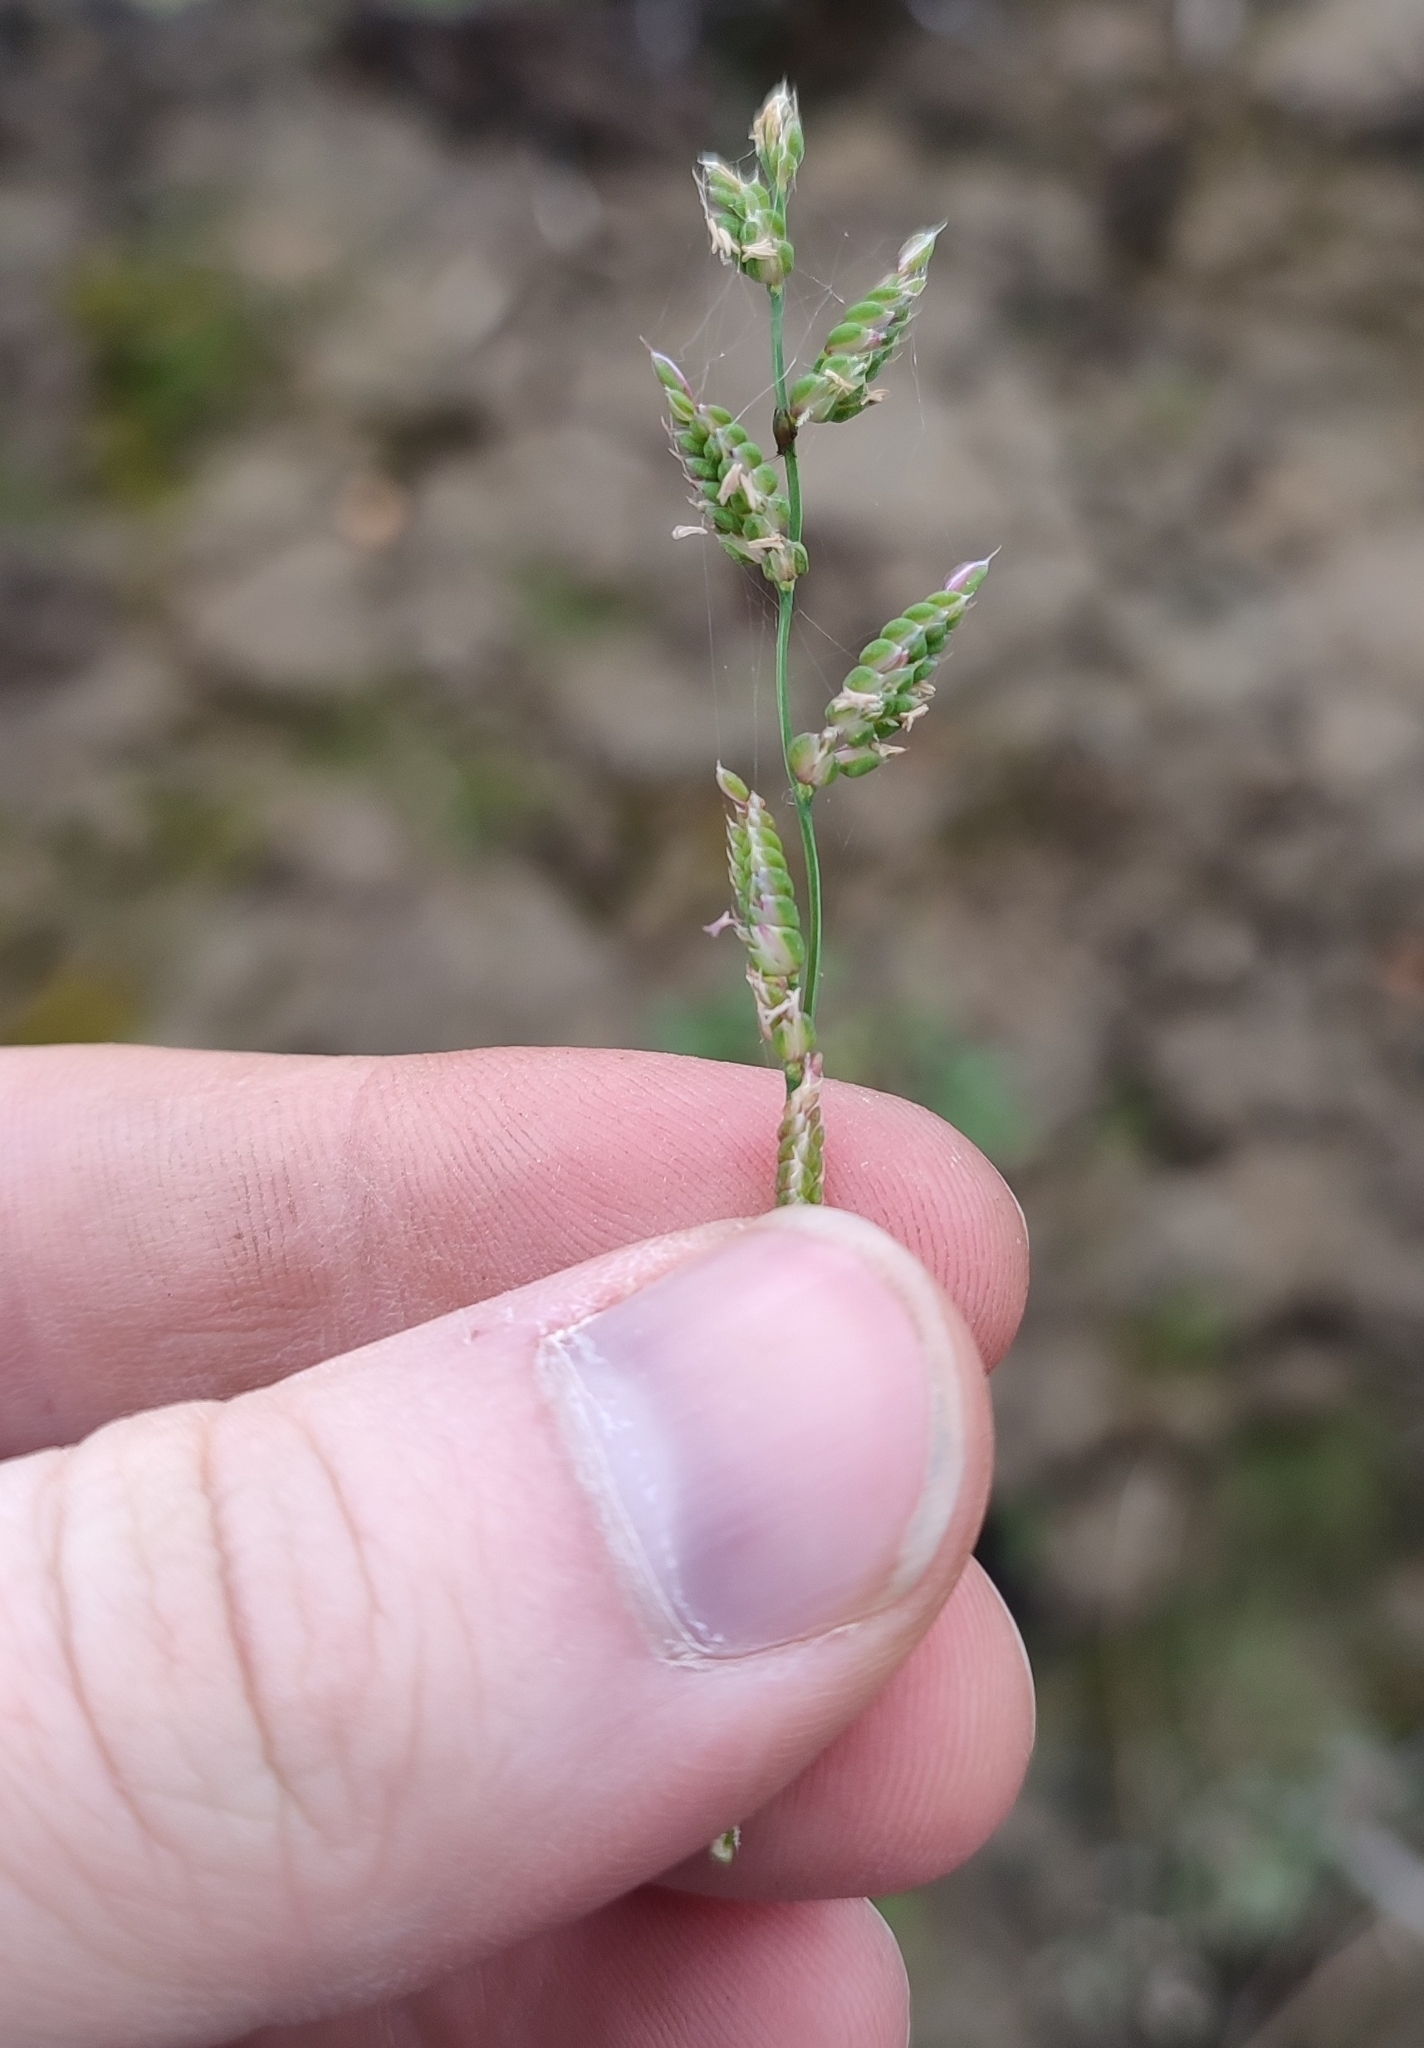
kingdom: Plantae
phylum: Tracheophyta
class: Liliopsida
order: Poales
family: Poaceae
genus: Beckmannia
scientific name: Beckmannia syzigachne
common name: American slough-grass
